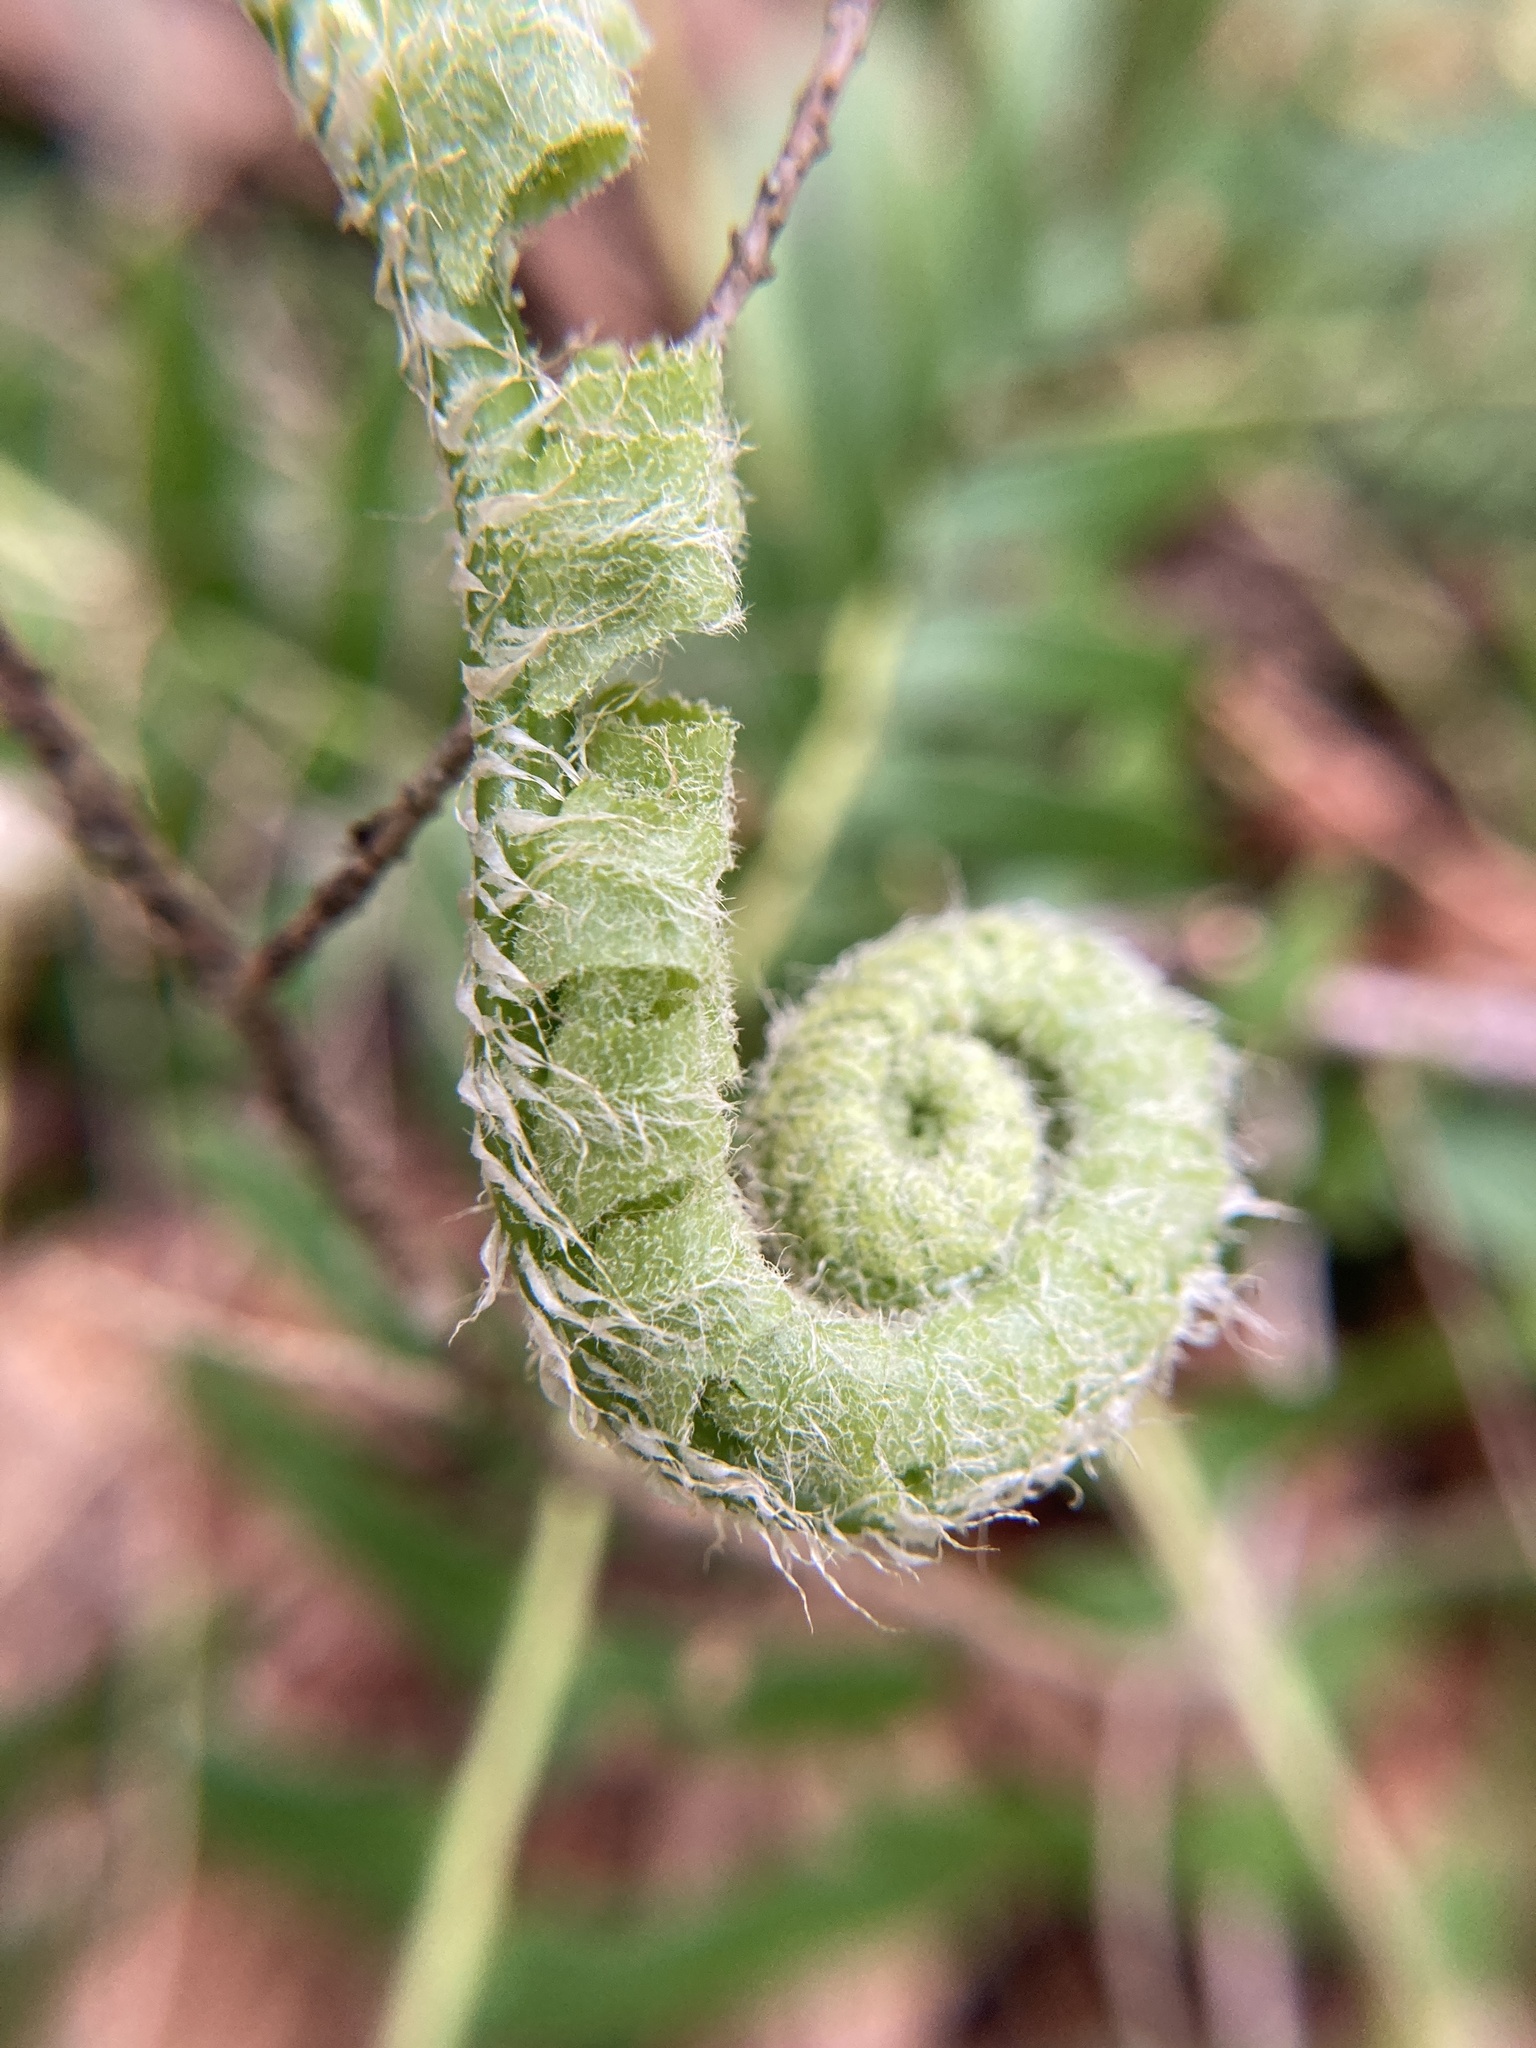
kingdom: Plantae
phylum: Tracheophyta
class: Polypodiopsida
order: Polypodiales
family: Dryopteridaceae
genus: Polystichum
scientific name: Polystichum acrostichoides
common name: Christmas fern
